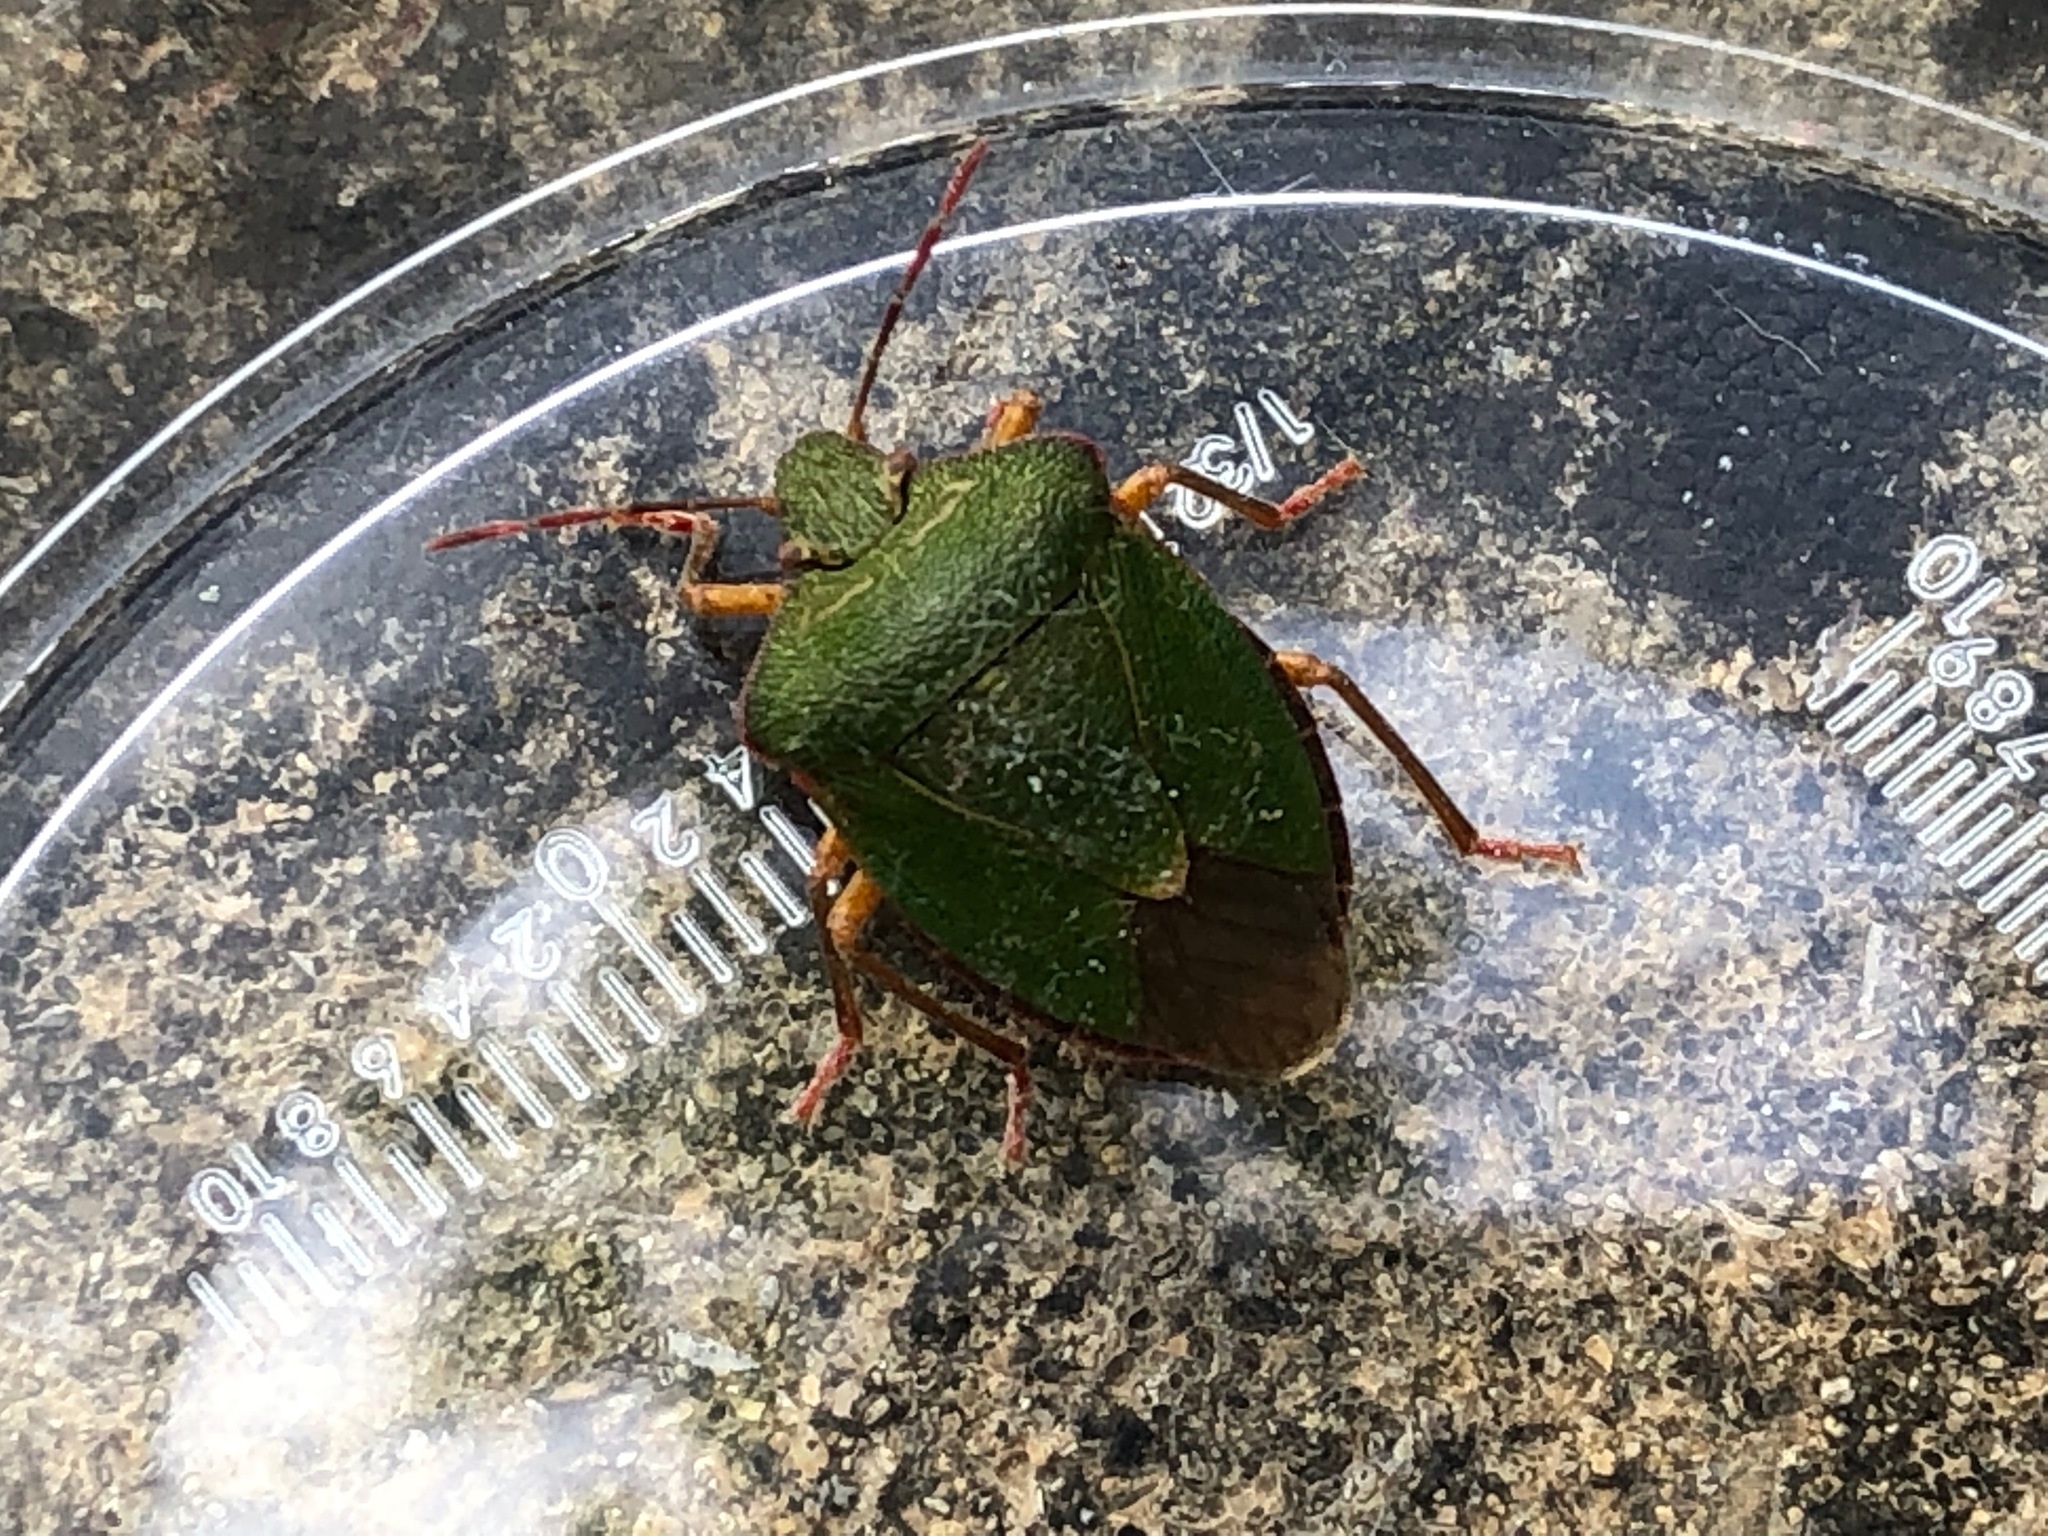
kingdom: Animalia
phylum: Arthropoda
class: Insecta
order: Hemiptera
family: Pentatomidae
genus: Palomena
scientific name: Palomena prasina
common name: Green shieldbug
